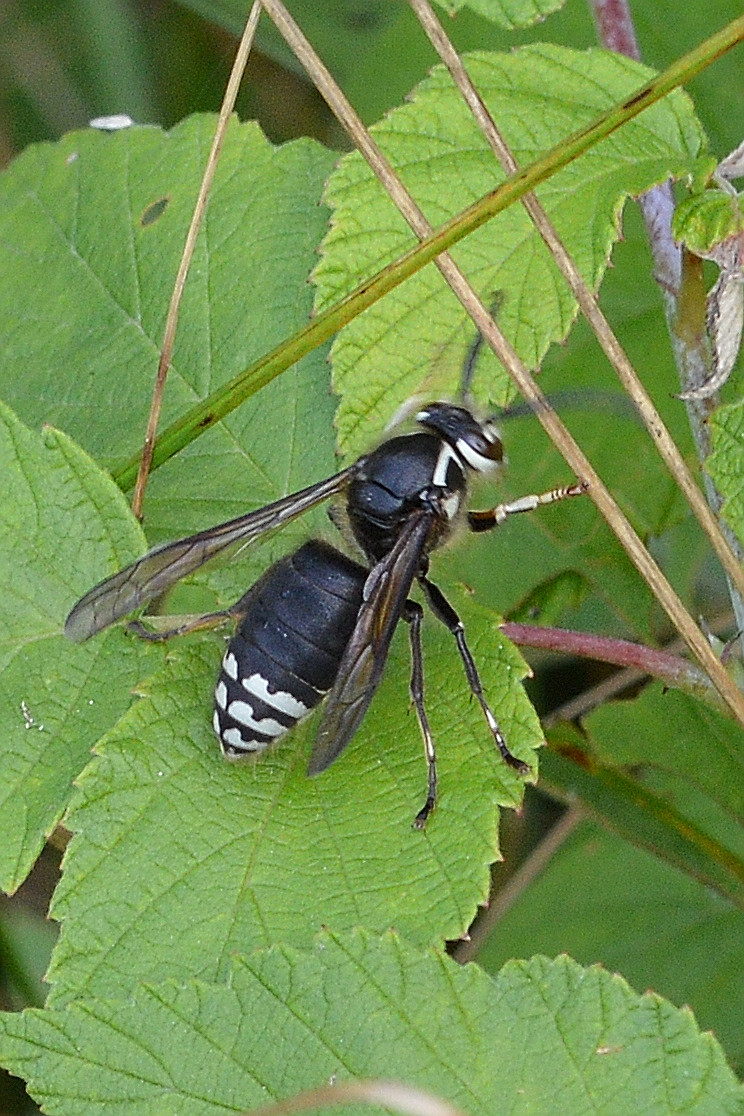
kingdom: Animalia
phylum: Arthropoda
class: Insecta
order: Hymenoptera
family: Vespidae
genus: Dolichovespula
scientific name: Dolichovespula maculata
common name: Bald-faced hornet
